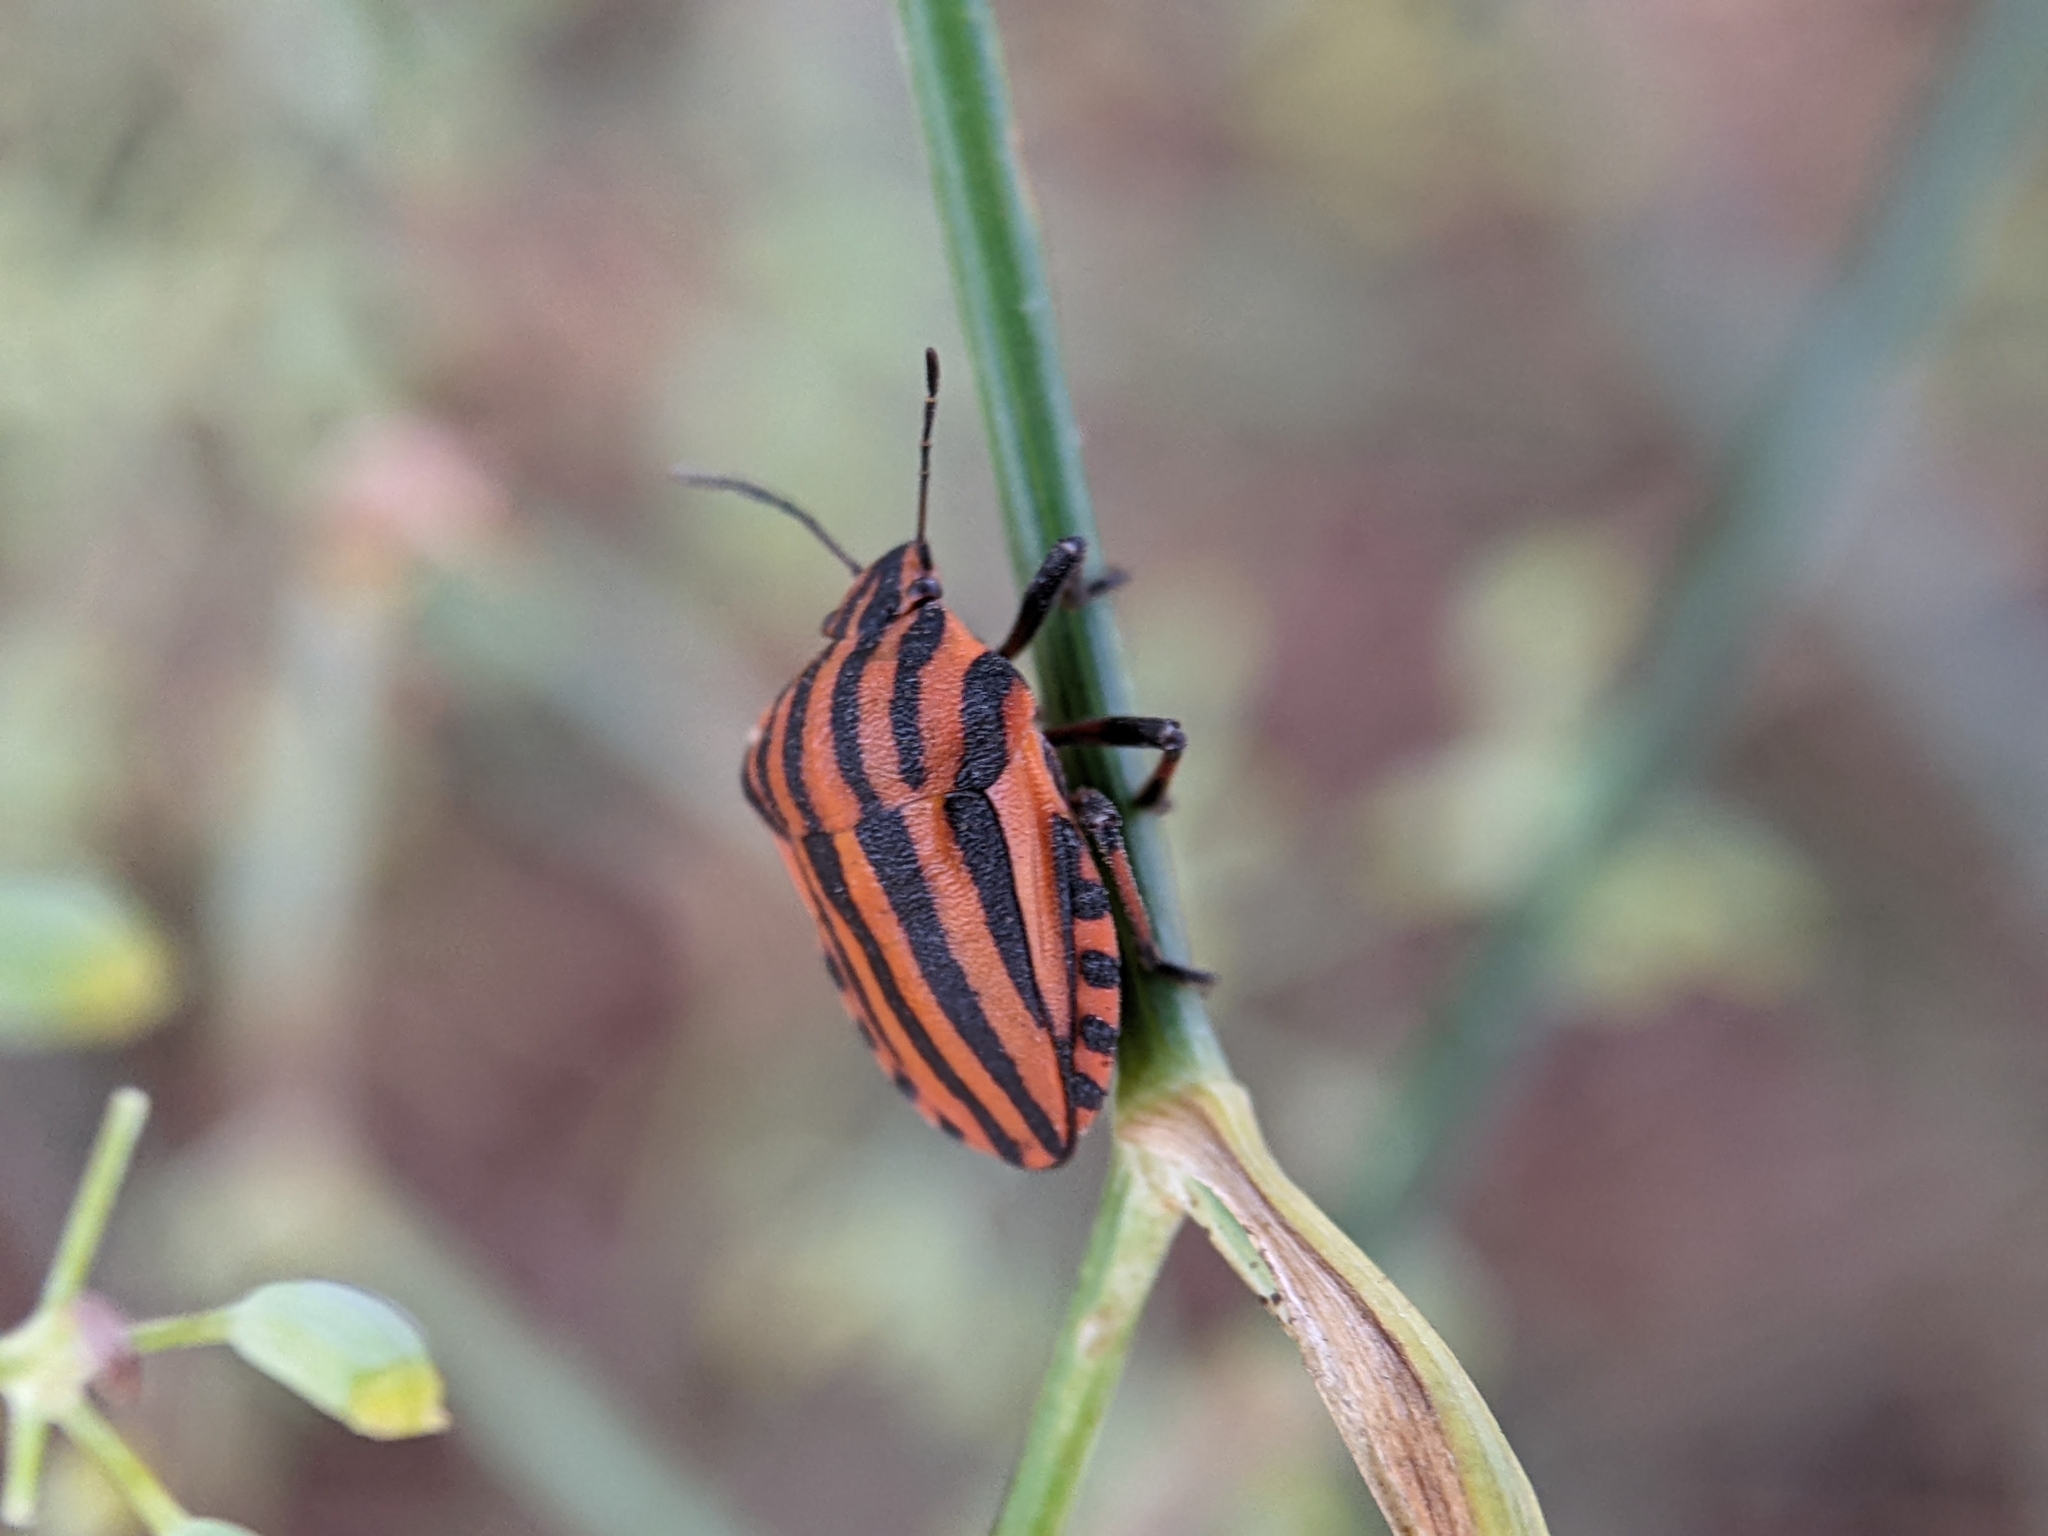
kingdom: Animalia
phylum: Arthropoda
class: Insecta
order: Hemiptera
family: Pentatomidae
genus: Graphosoma
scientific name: Graphosoma italicum
